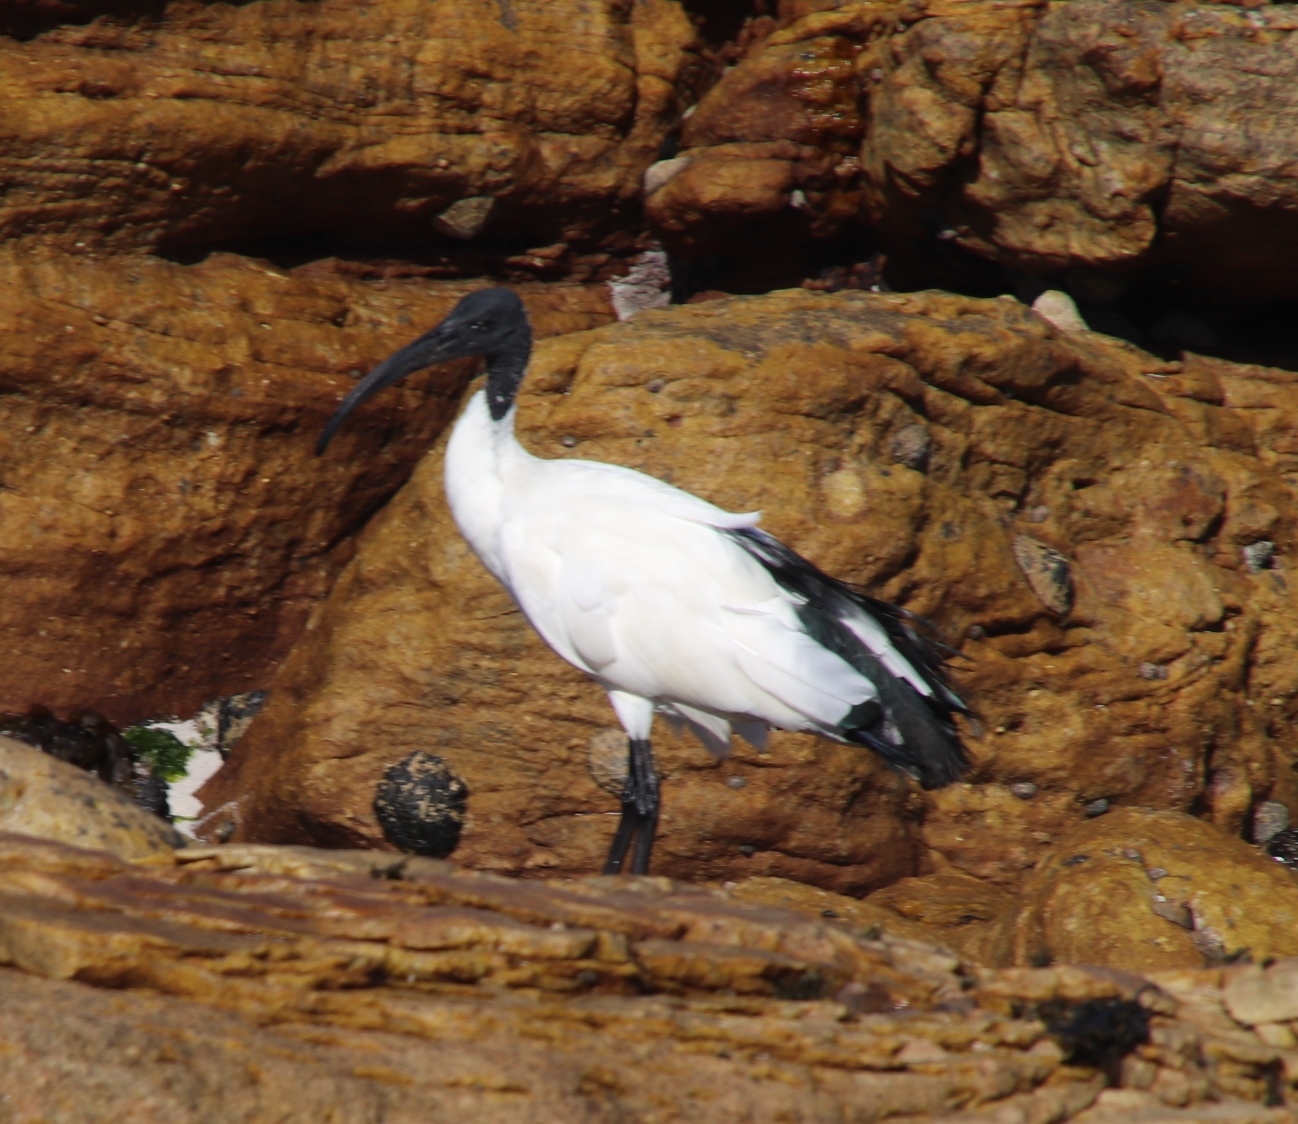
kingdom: Animalia
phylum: Chordata
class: Aves
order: Pelecaniformes
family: Threskiornithidae
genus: Threskiornis
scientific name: Threskiornis aethiopicus
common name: Sacred ibis
